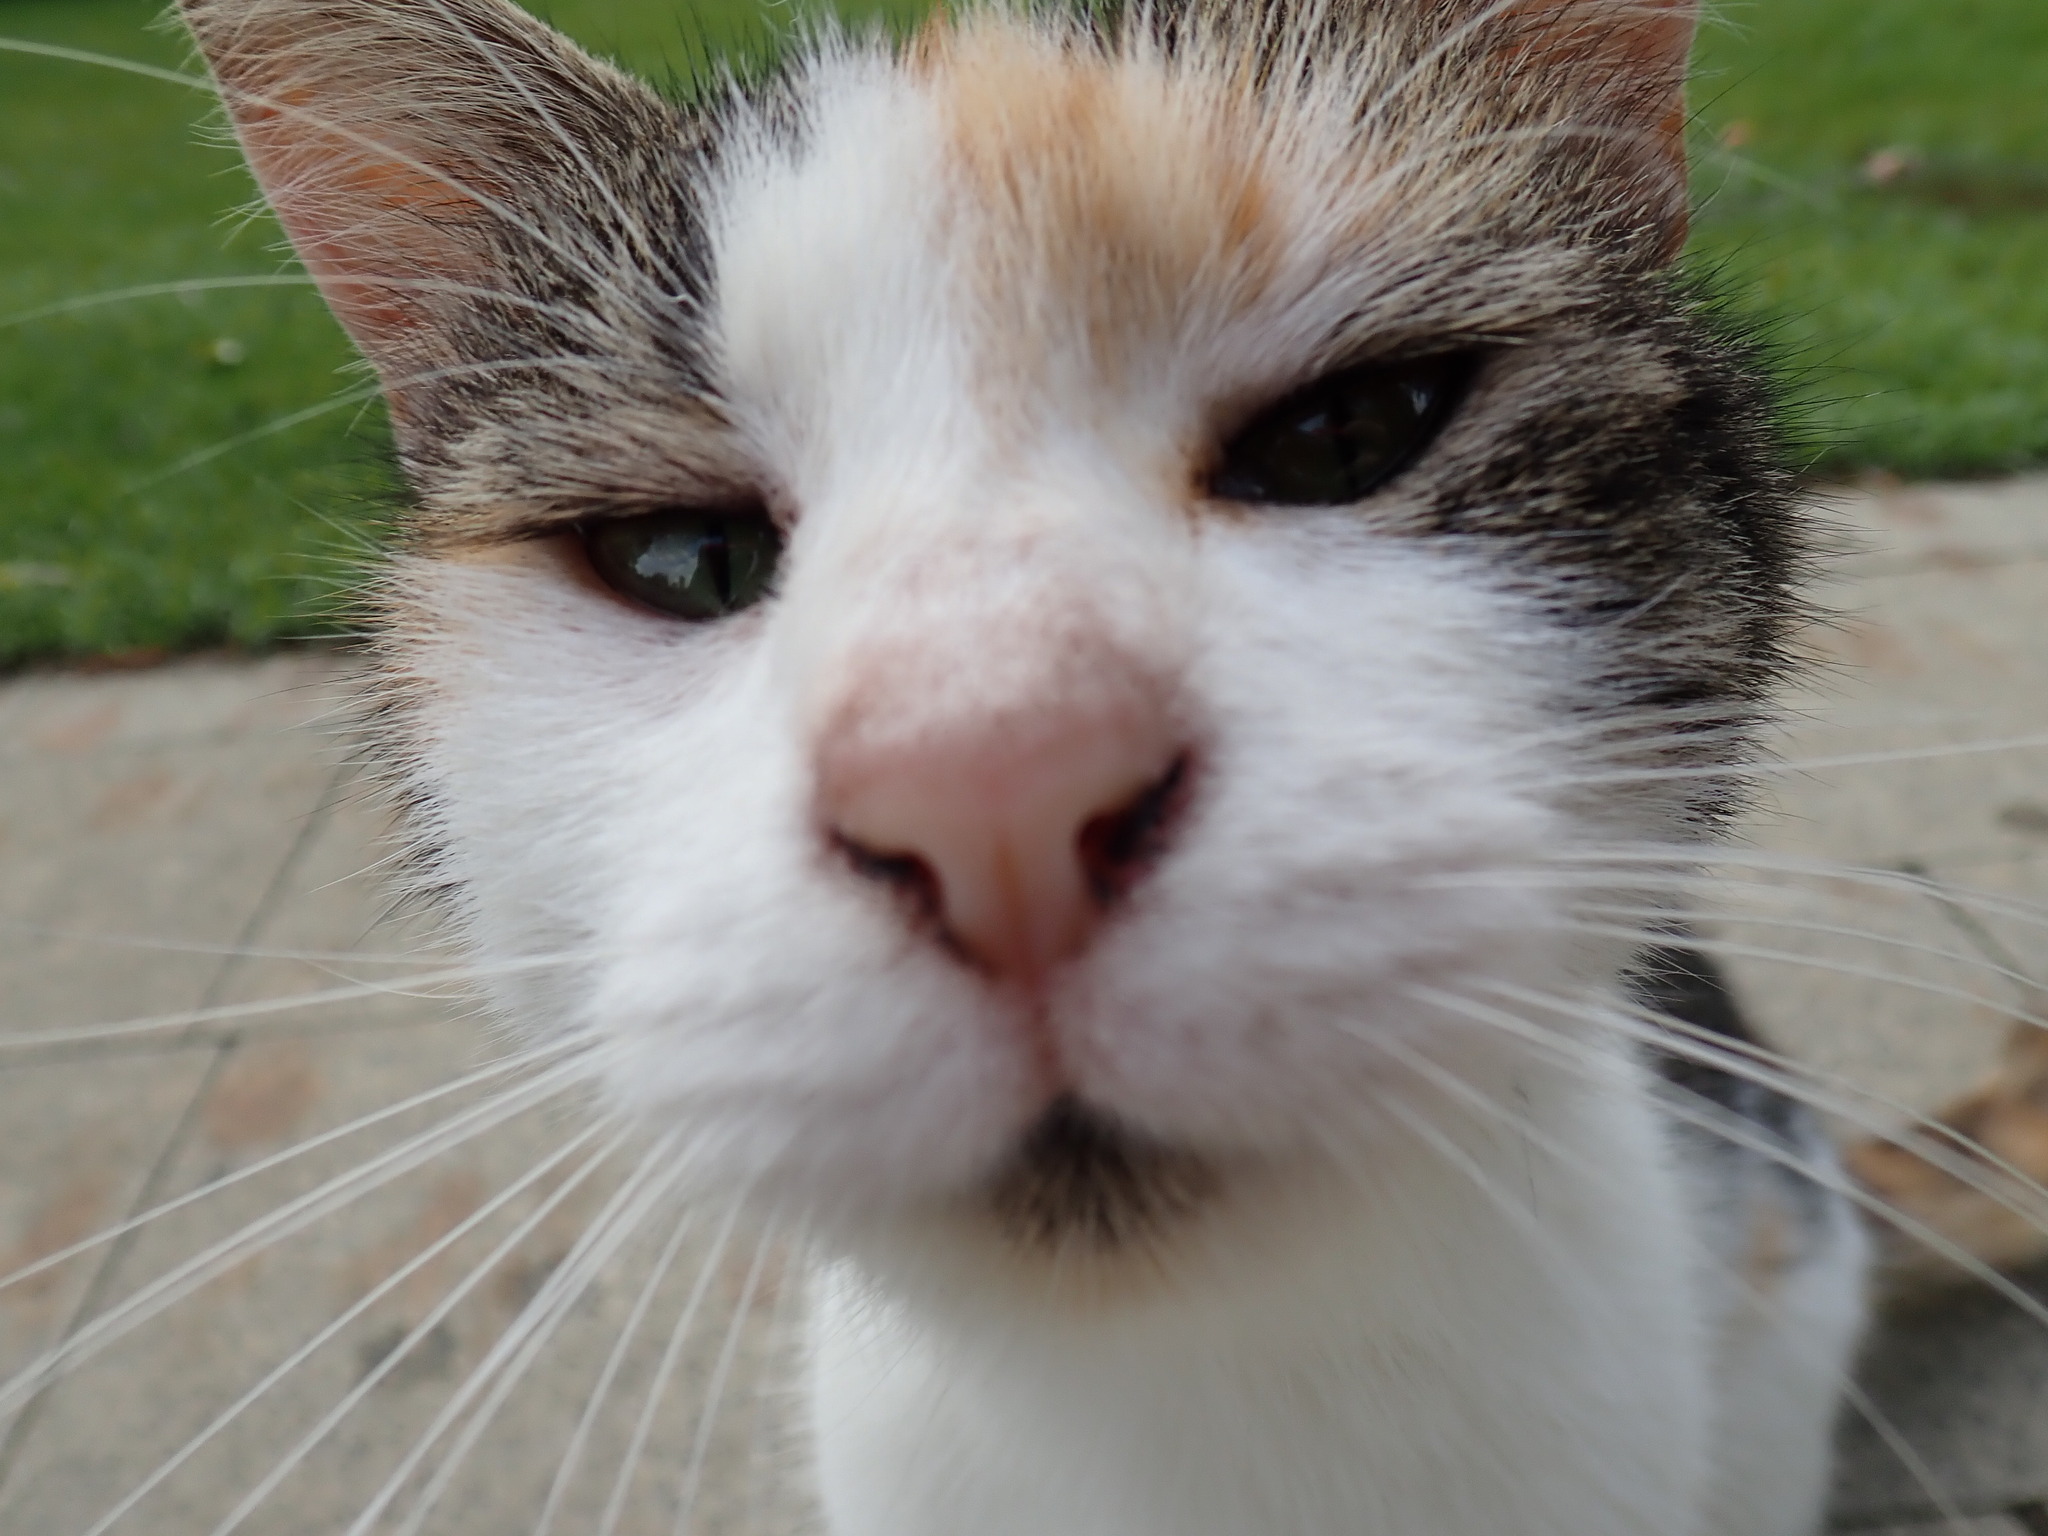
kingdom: Animalia
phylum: Chordata
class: Mammalia
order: Carnivora
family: Felidae
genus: Felis
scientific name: Felis catus
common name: Domestic cat
